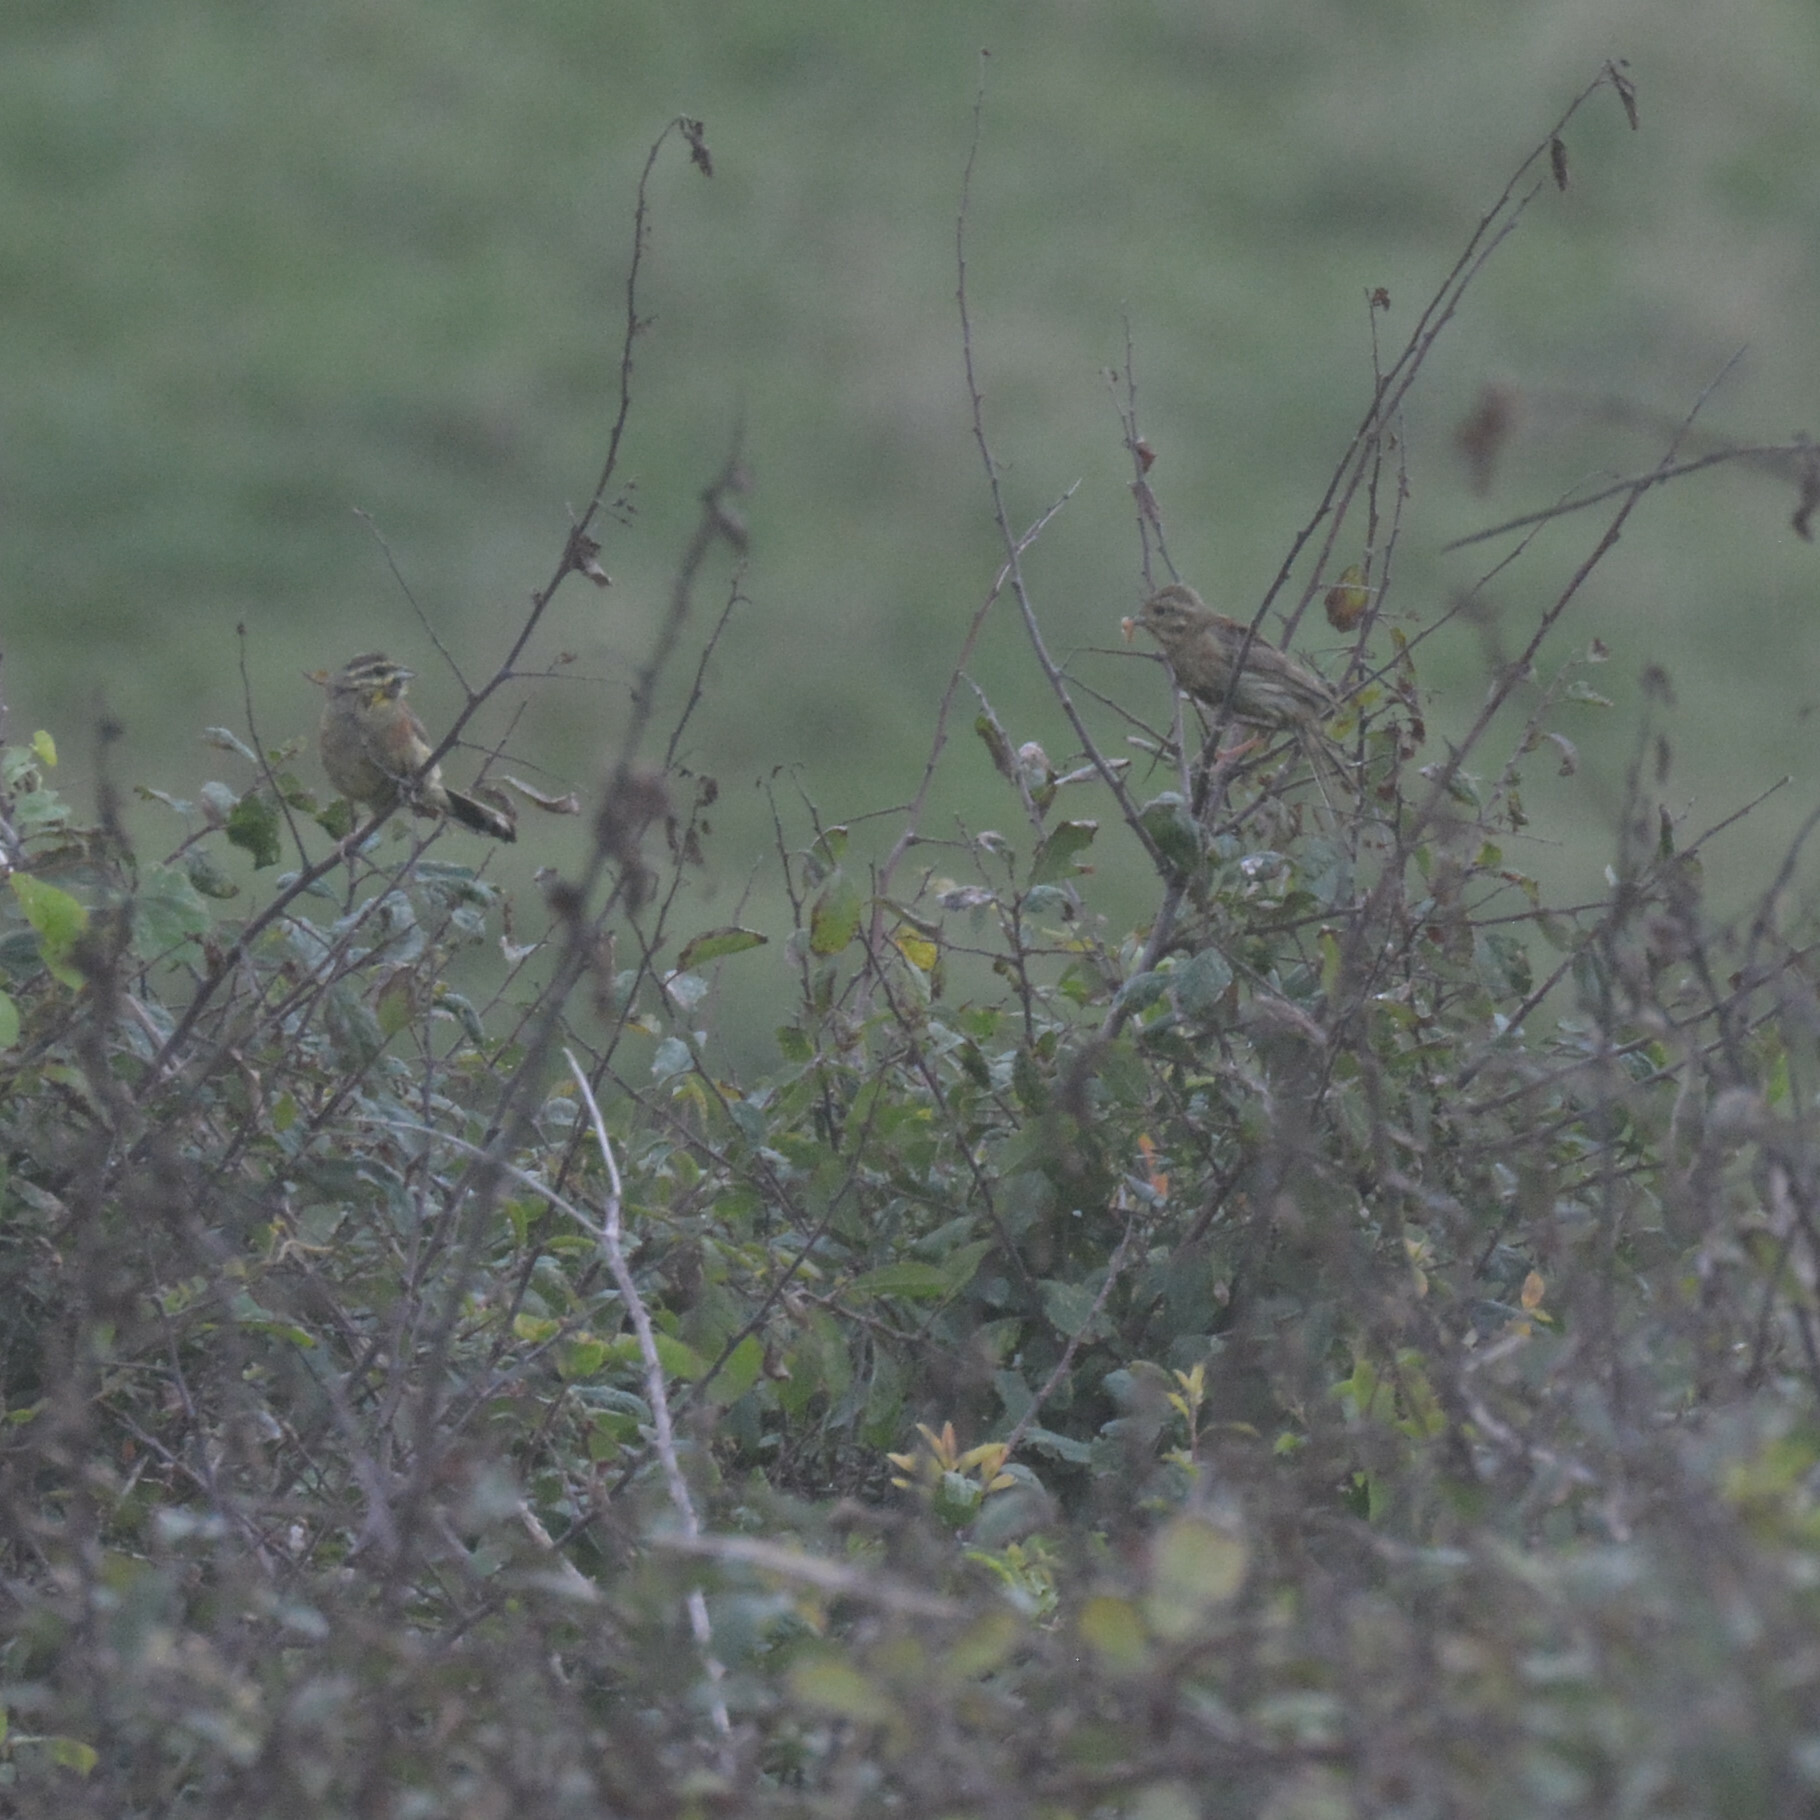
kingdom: Animalia
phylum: Chordata
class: Aves
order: Passeriformes
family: Emberizidae
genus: Emberiza
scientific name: Emberiza cirlus
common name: Cirl bunting
